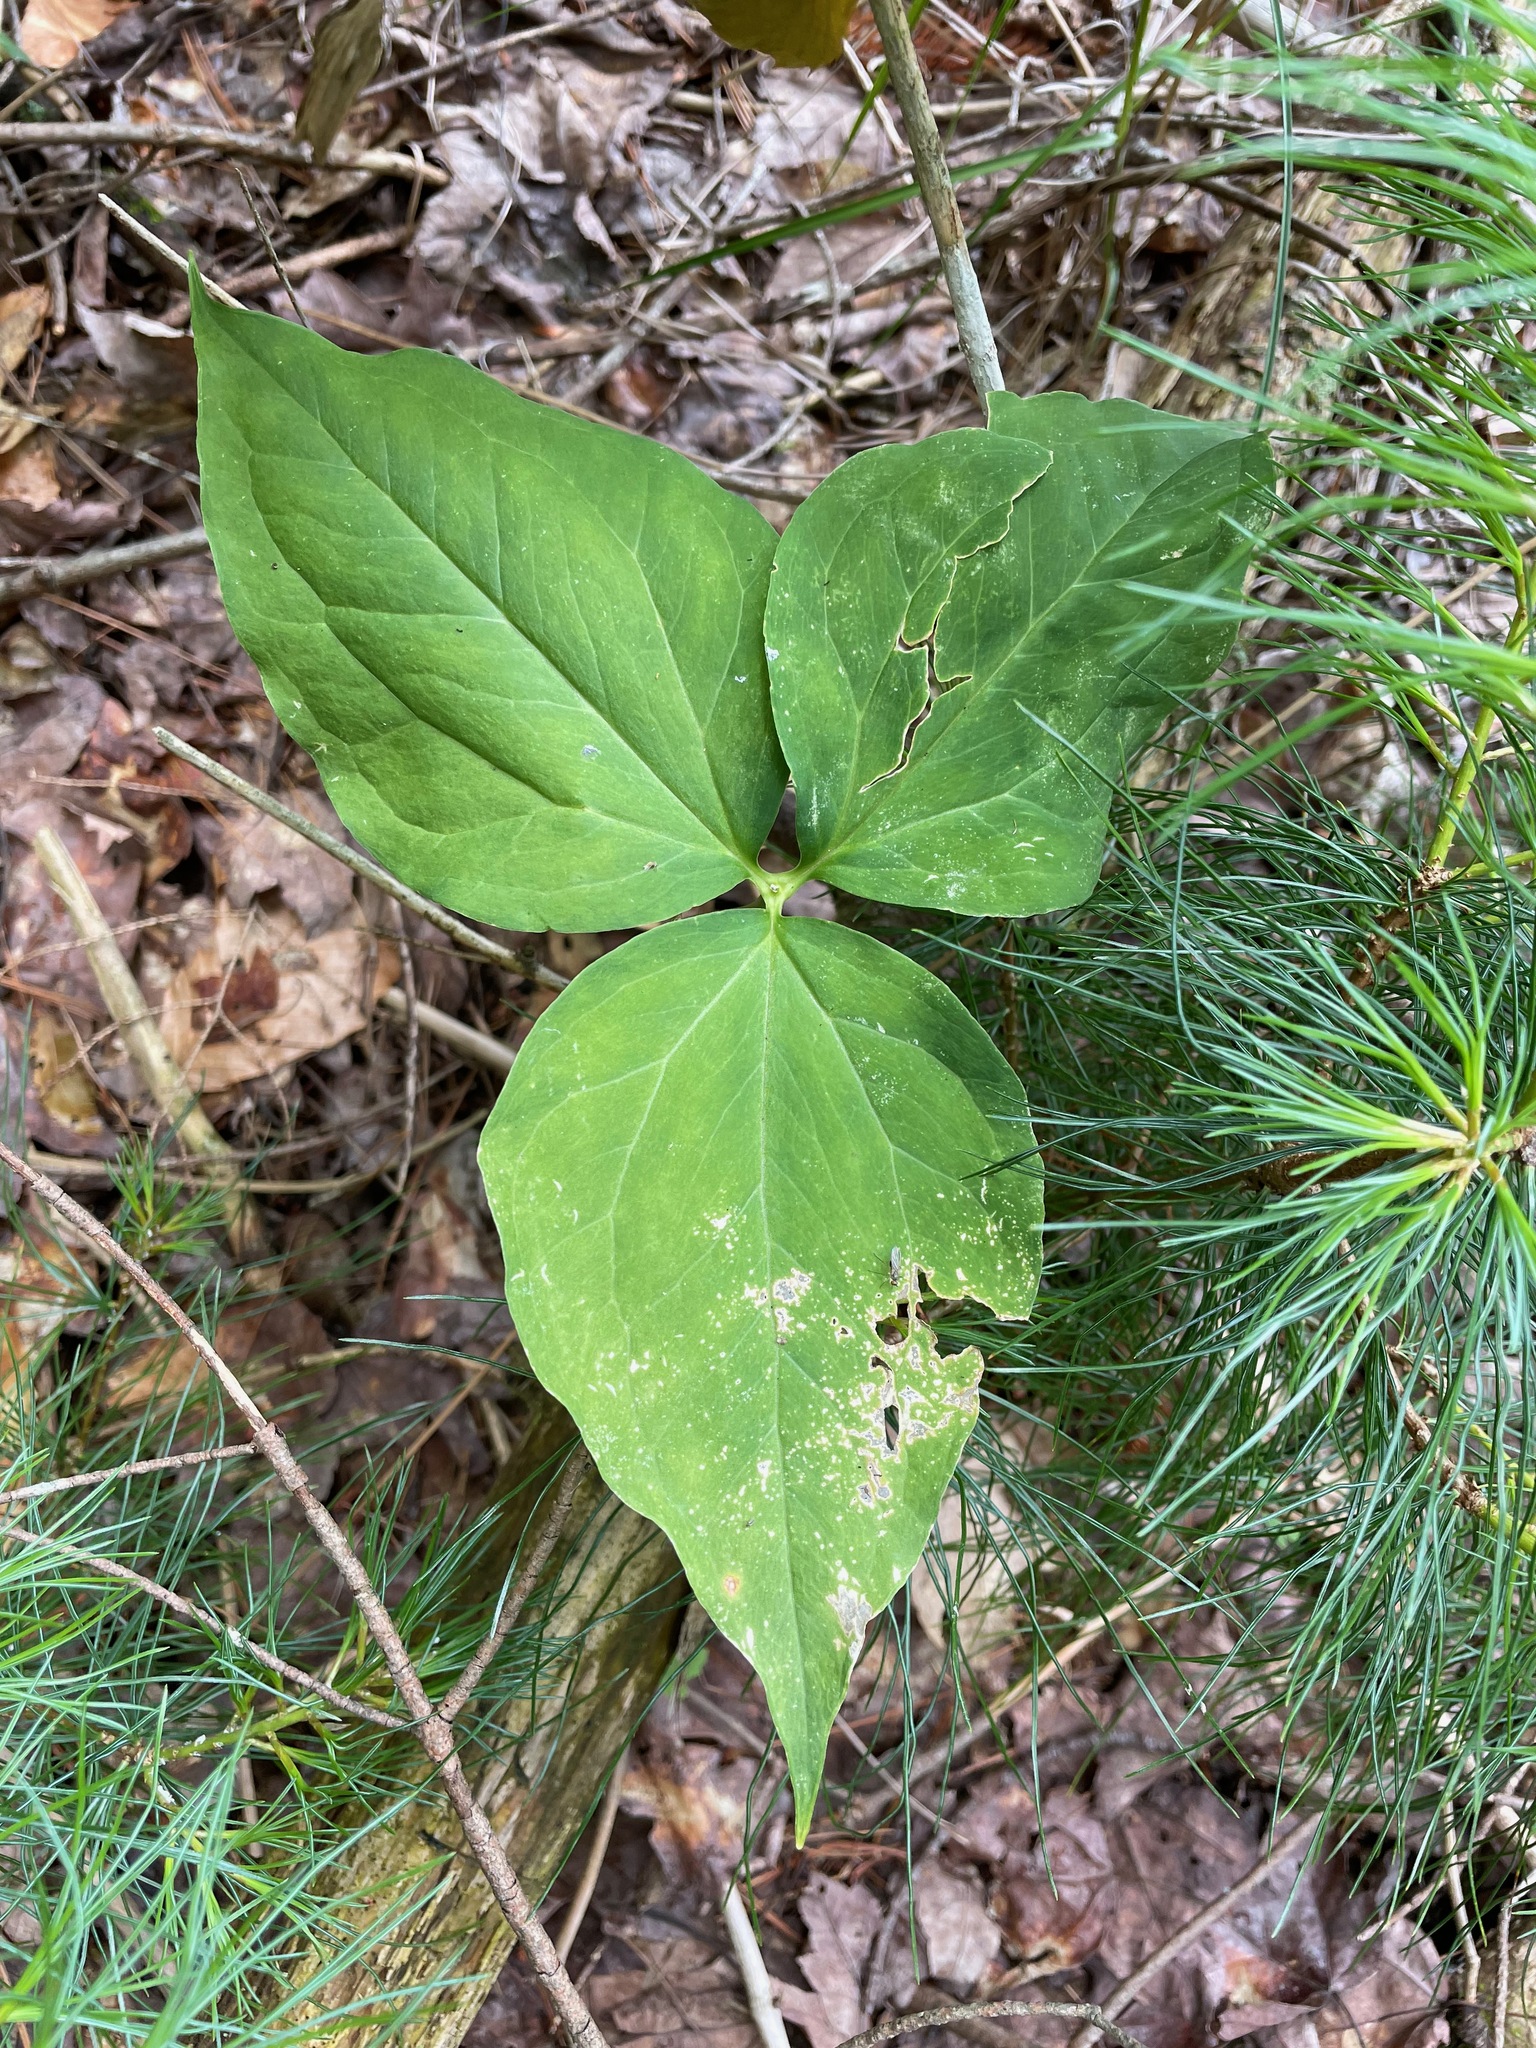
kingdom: Plantae
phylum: Tracheophyta
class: Liliopsida
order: Liliales
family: Melanthiaceae
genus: Trillium
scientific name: Trillium undulatum
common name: Paint trillium
